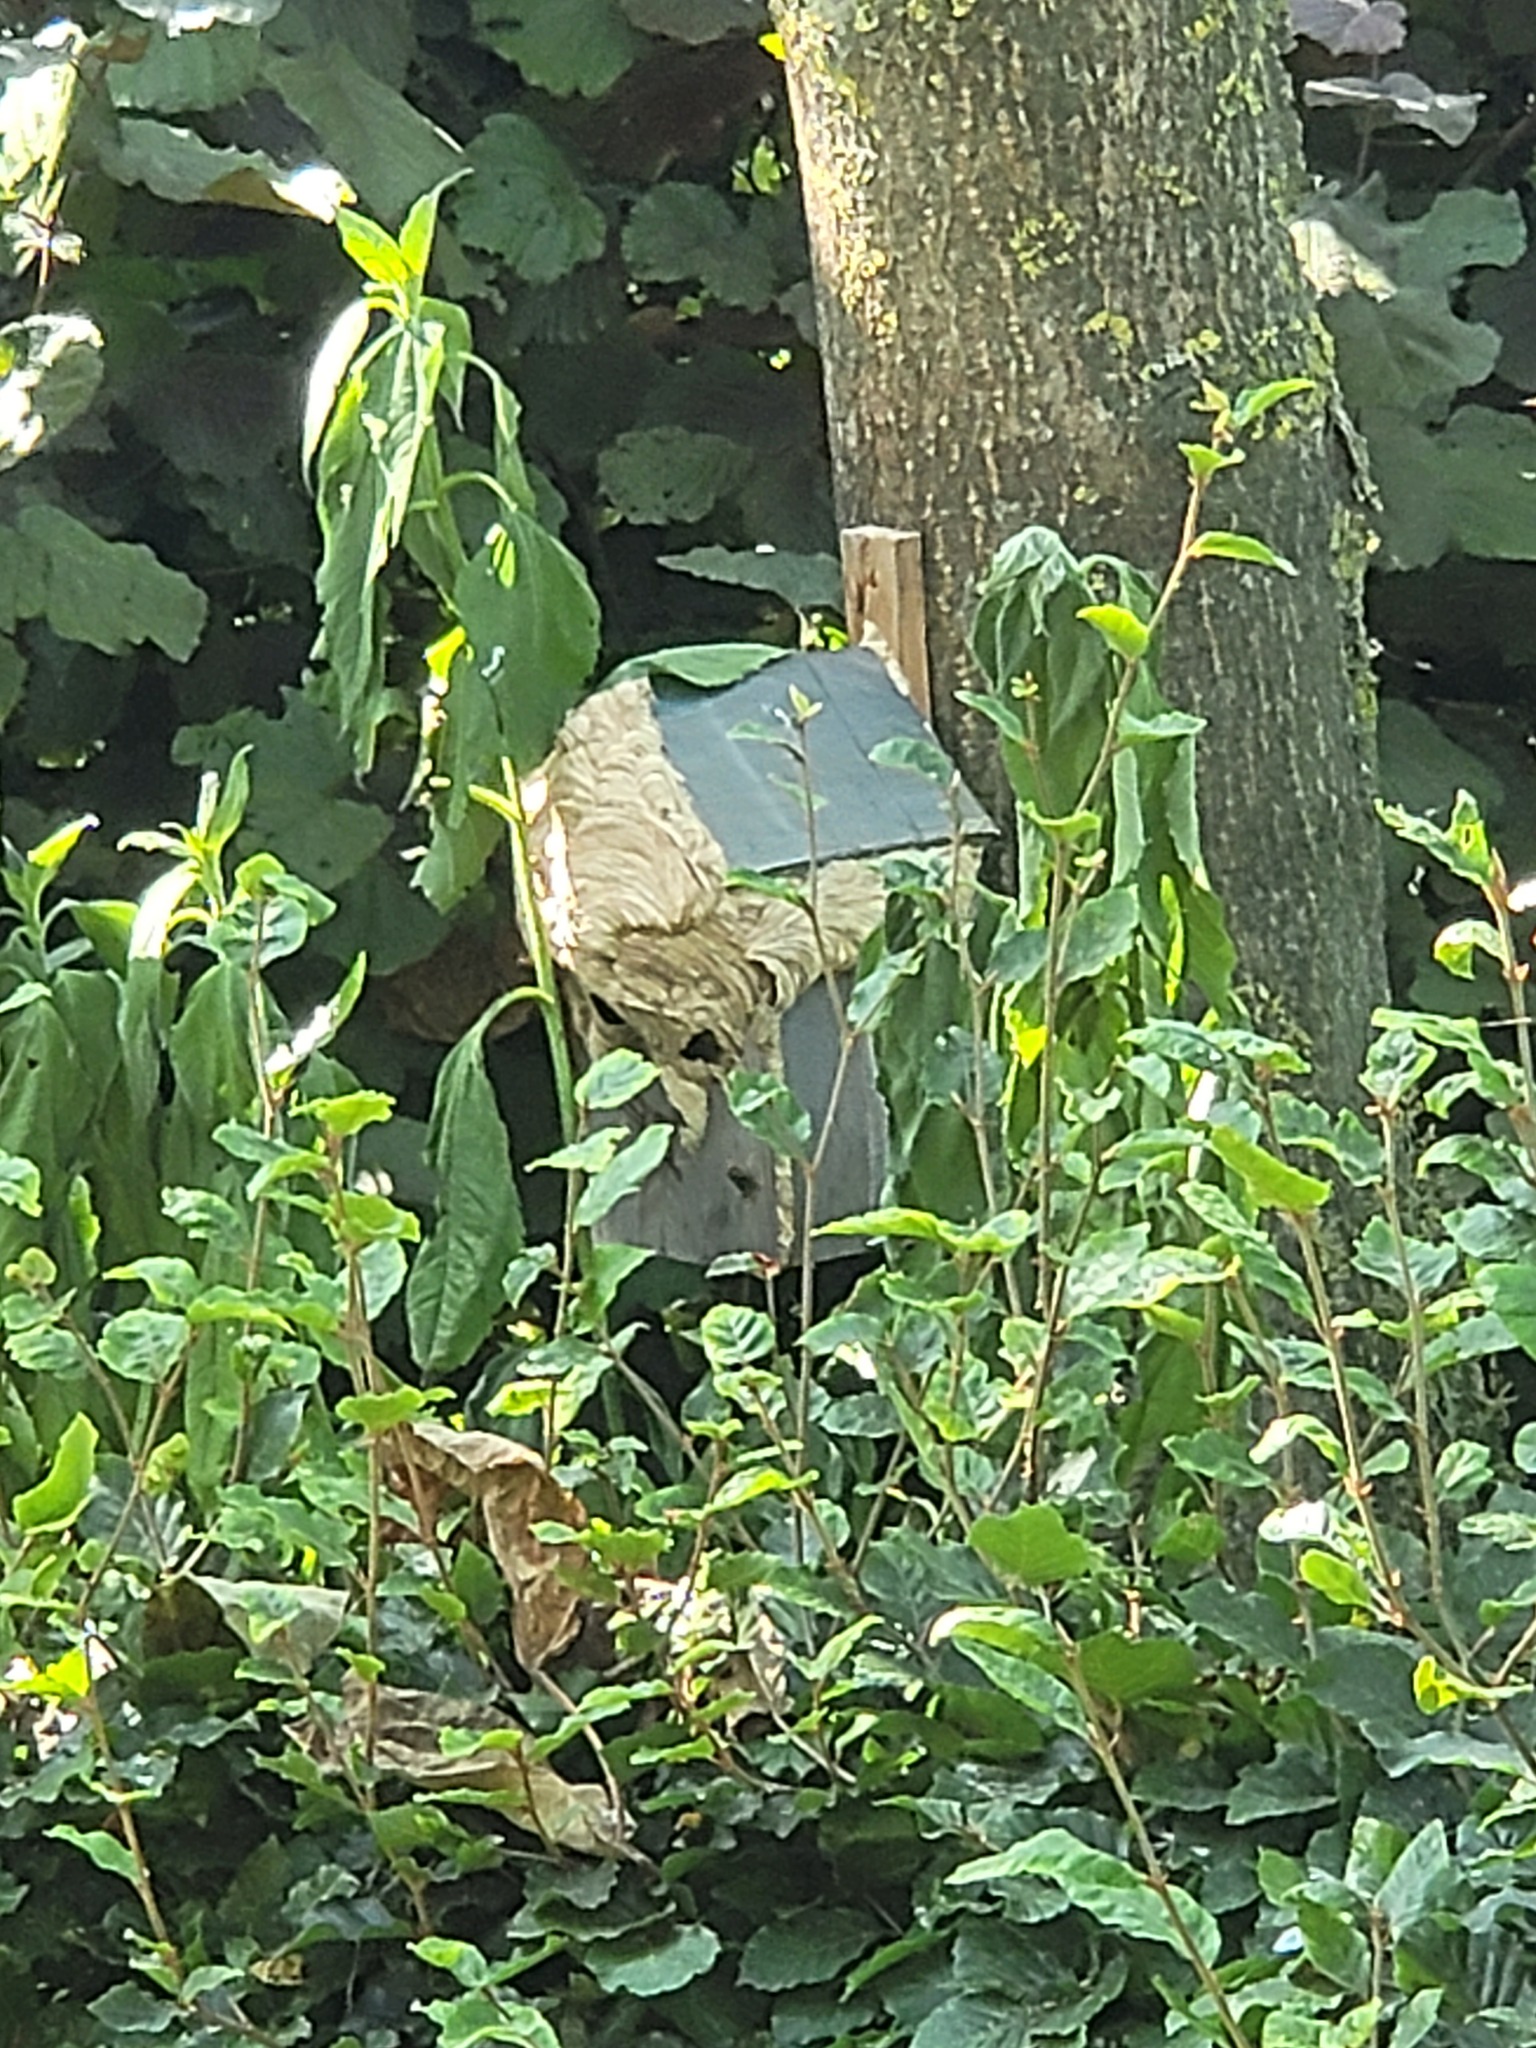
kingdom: Animalia
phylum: Arthropoda
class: Insecta
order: Hymenoptera
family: Vespidae
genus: Vespa
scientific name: Vespa velutina
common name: Asian hornet
